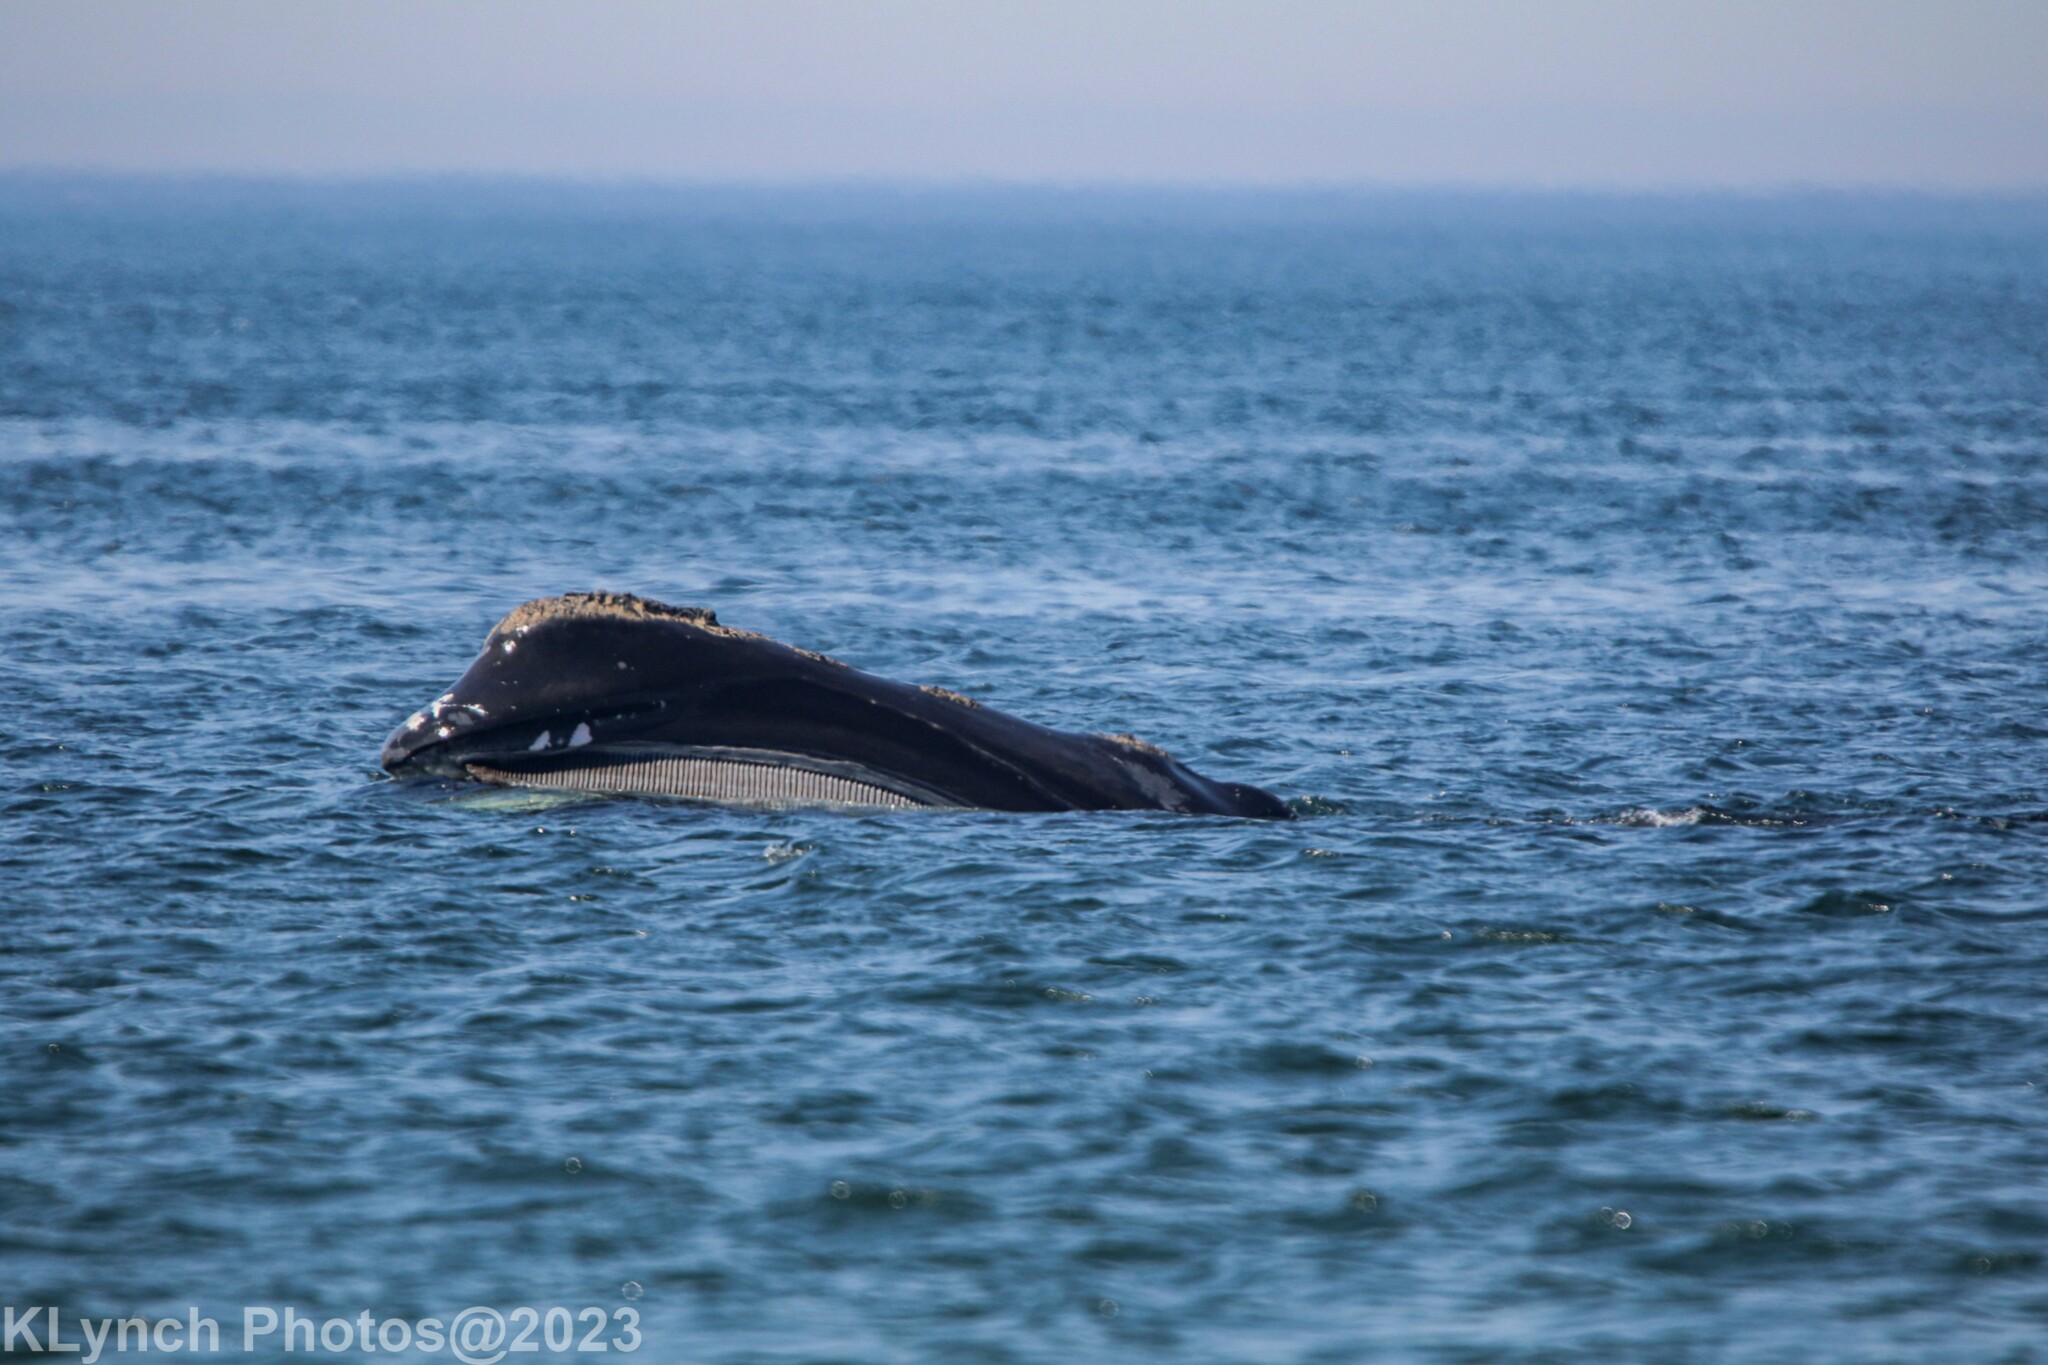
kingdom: Animalia
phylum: Chordata
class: Mammalia
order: Cetacea
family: Balaenidae
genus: Eubalaena
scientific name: Eubalaena glacialis
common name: North atlantic right whale
